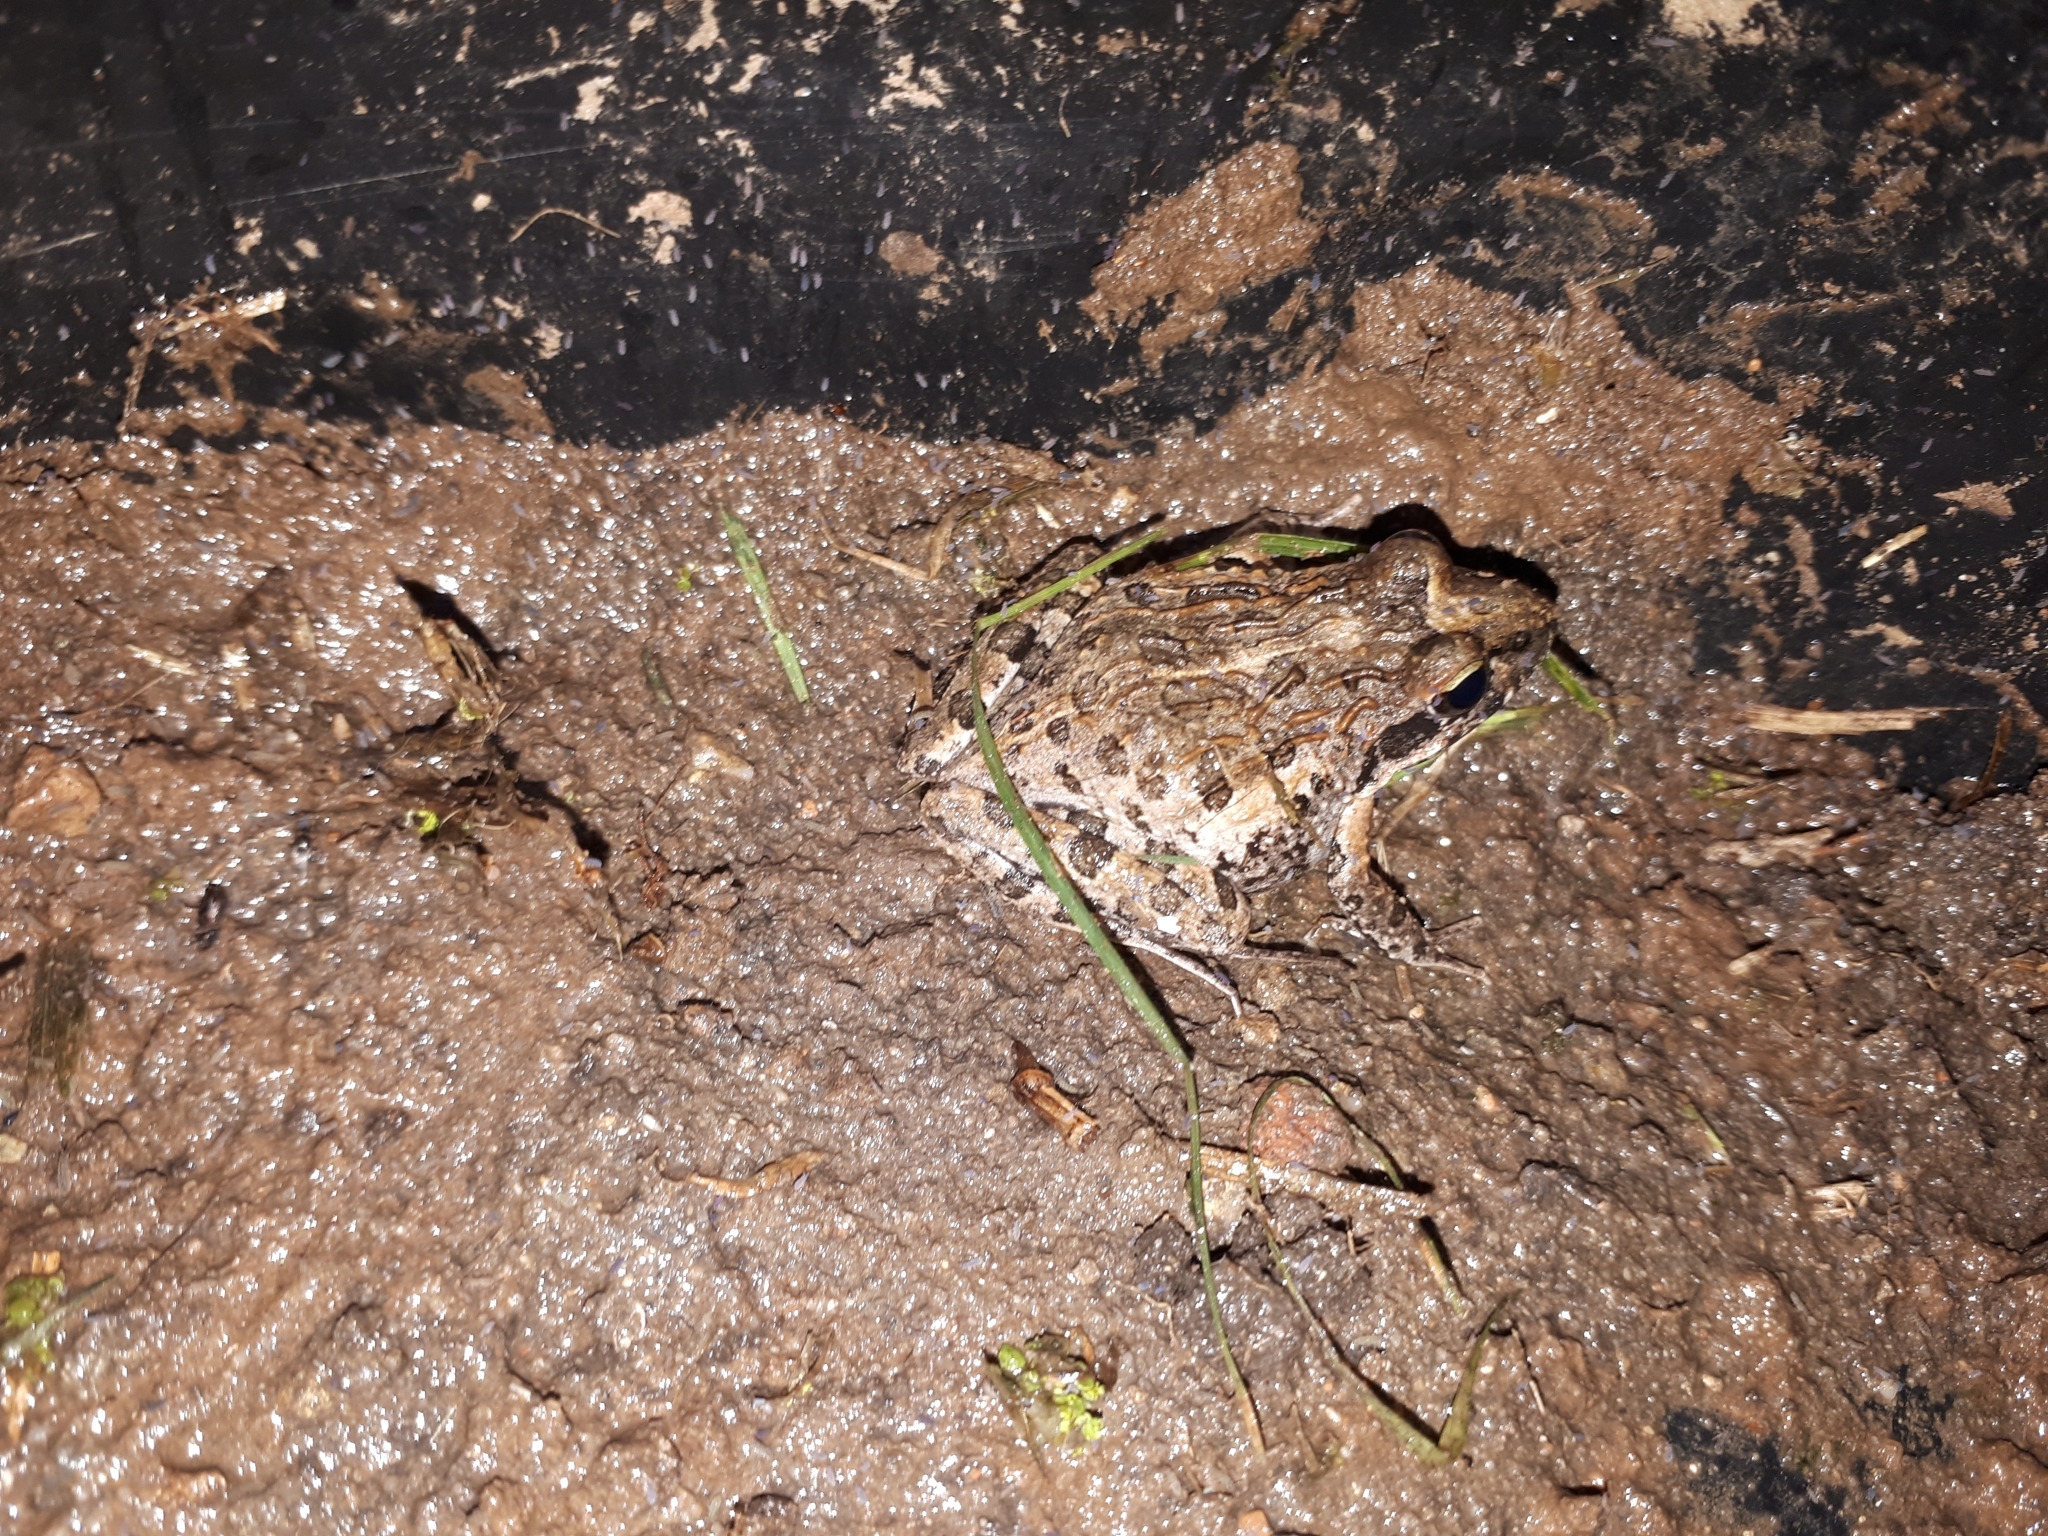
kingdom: Animalia
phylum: Chordata
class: Amphibia
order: Anura
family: Pyxicephalidae
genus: Strongylopus
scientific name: Strongylopus grayii
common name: Gray's stream frog
